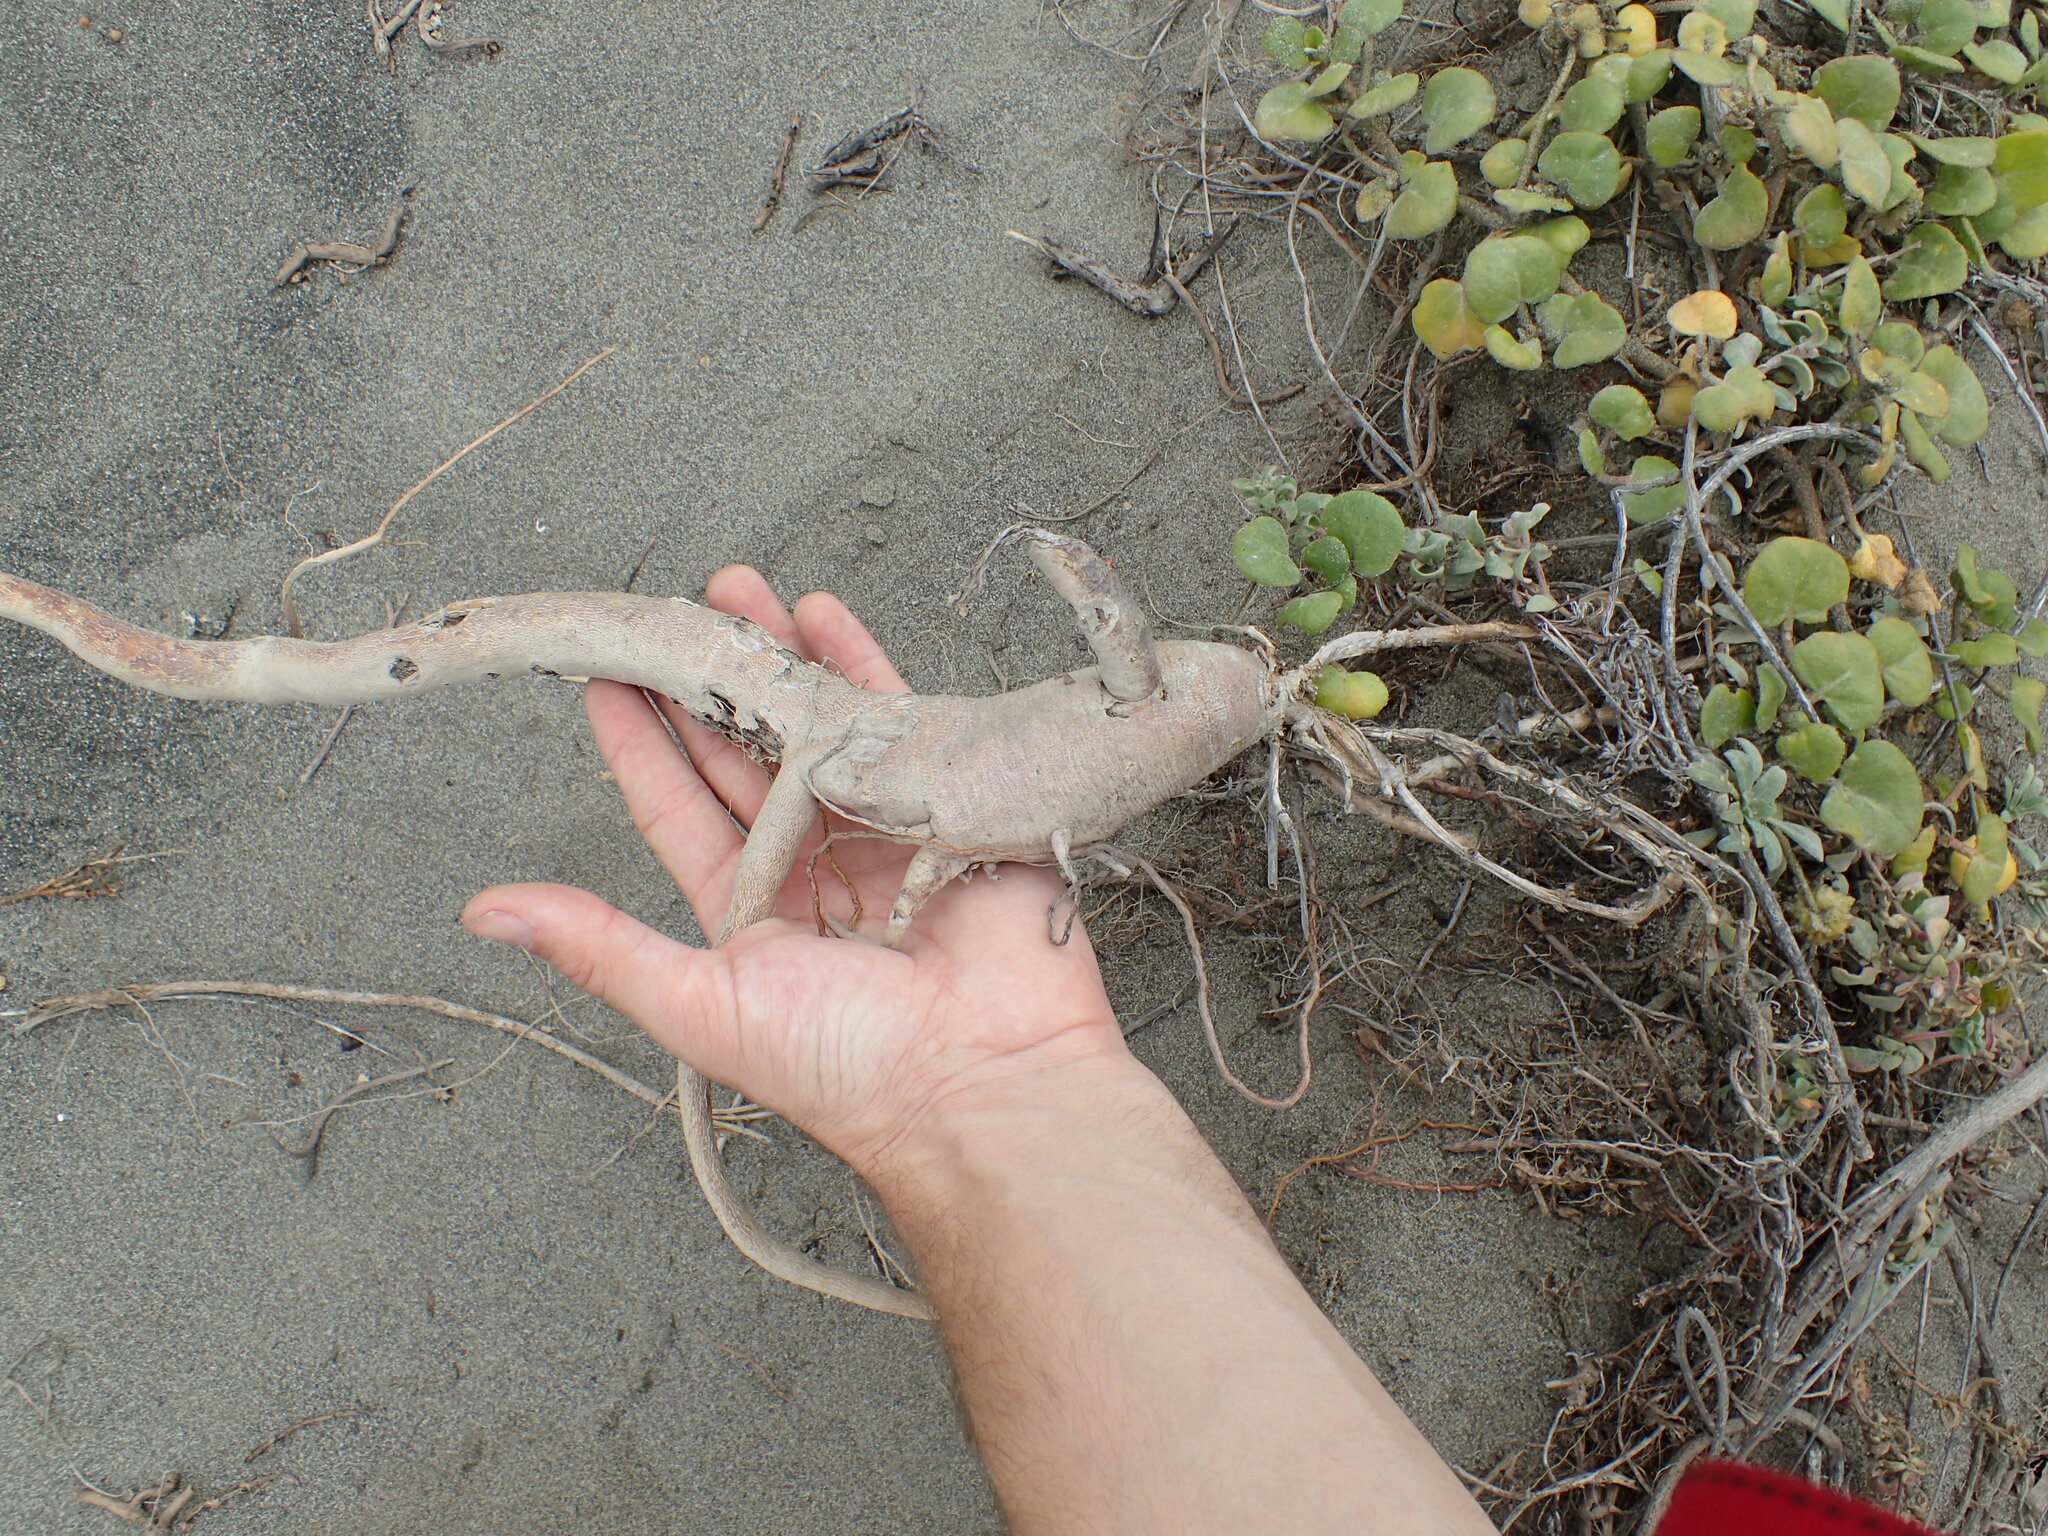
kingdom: Plantae
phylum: Tracheophyta
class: Magnoliopsida
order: Caryophyllales
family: Nyctaginaceae
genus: Abronia
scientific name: Abronia latifolia
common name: Yellow sand-verbena
